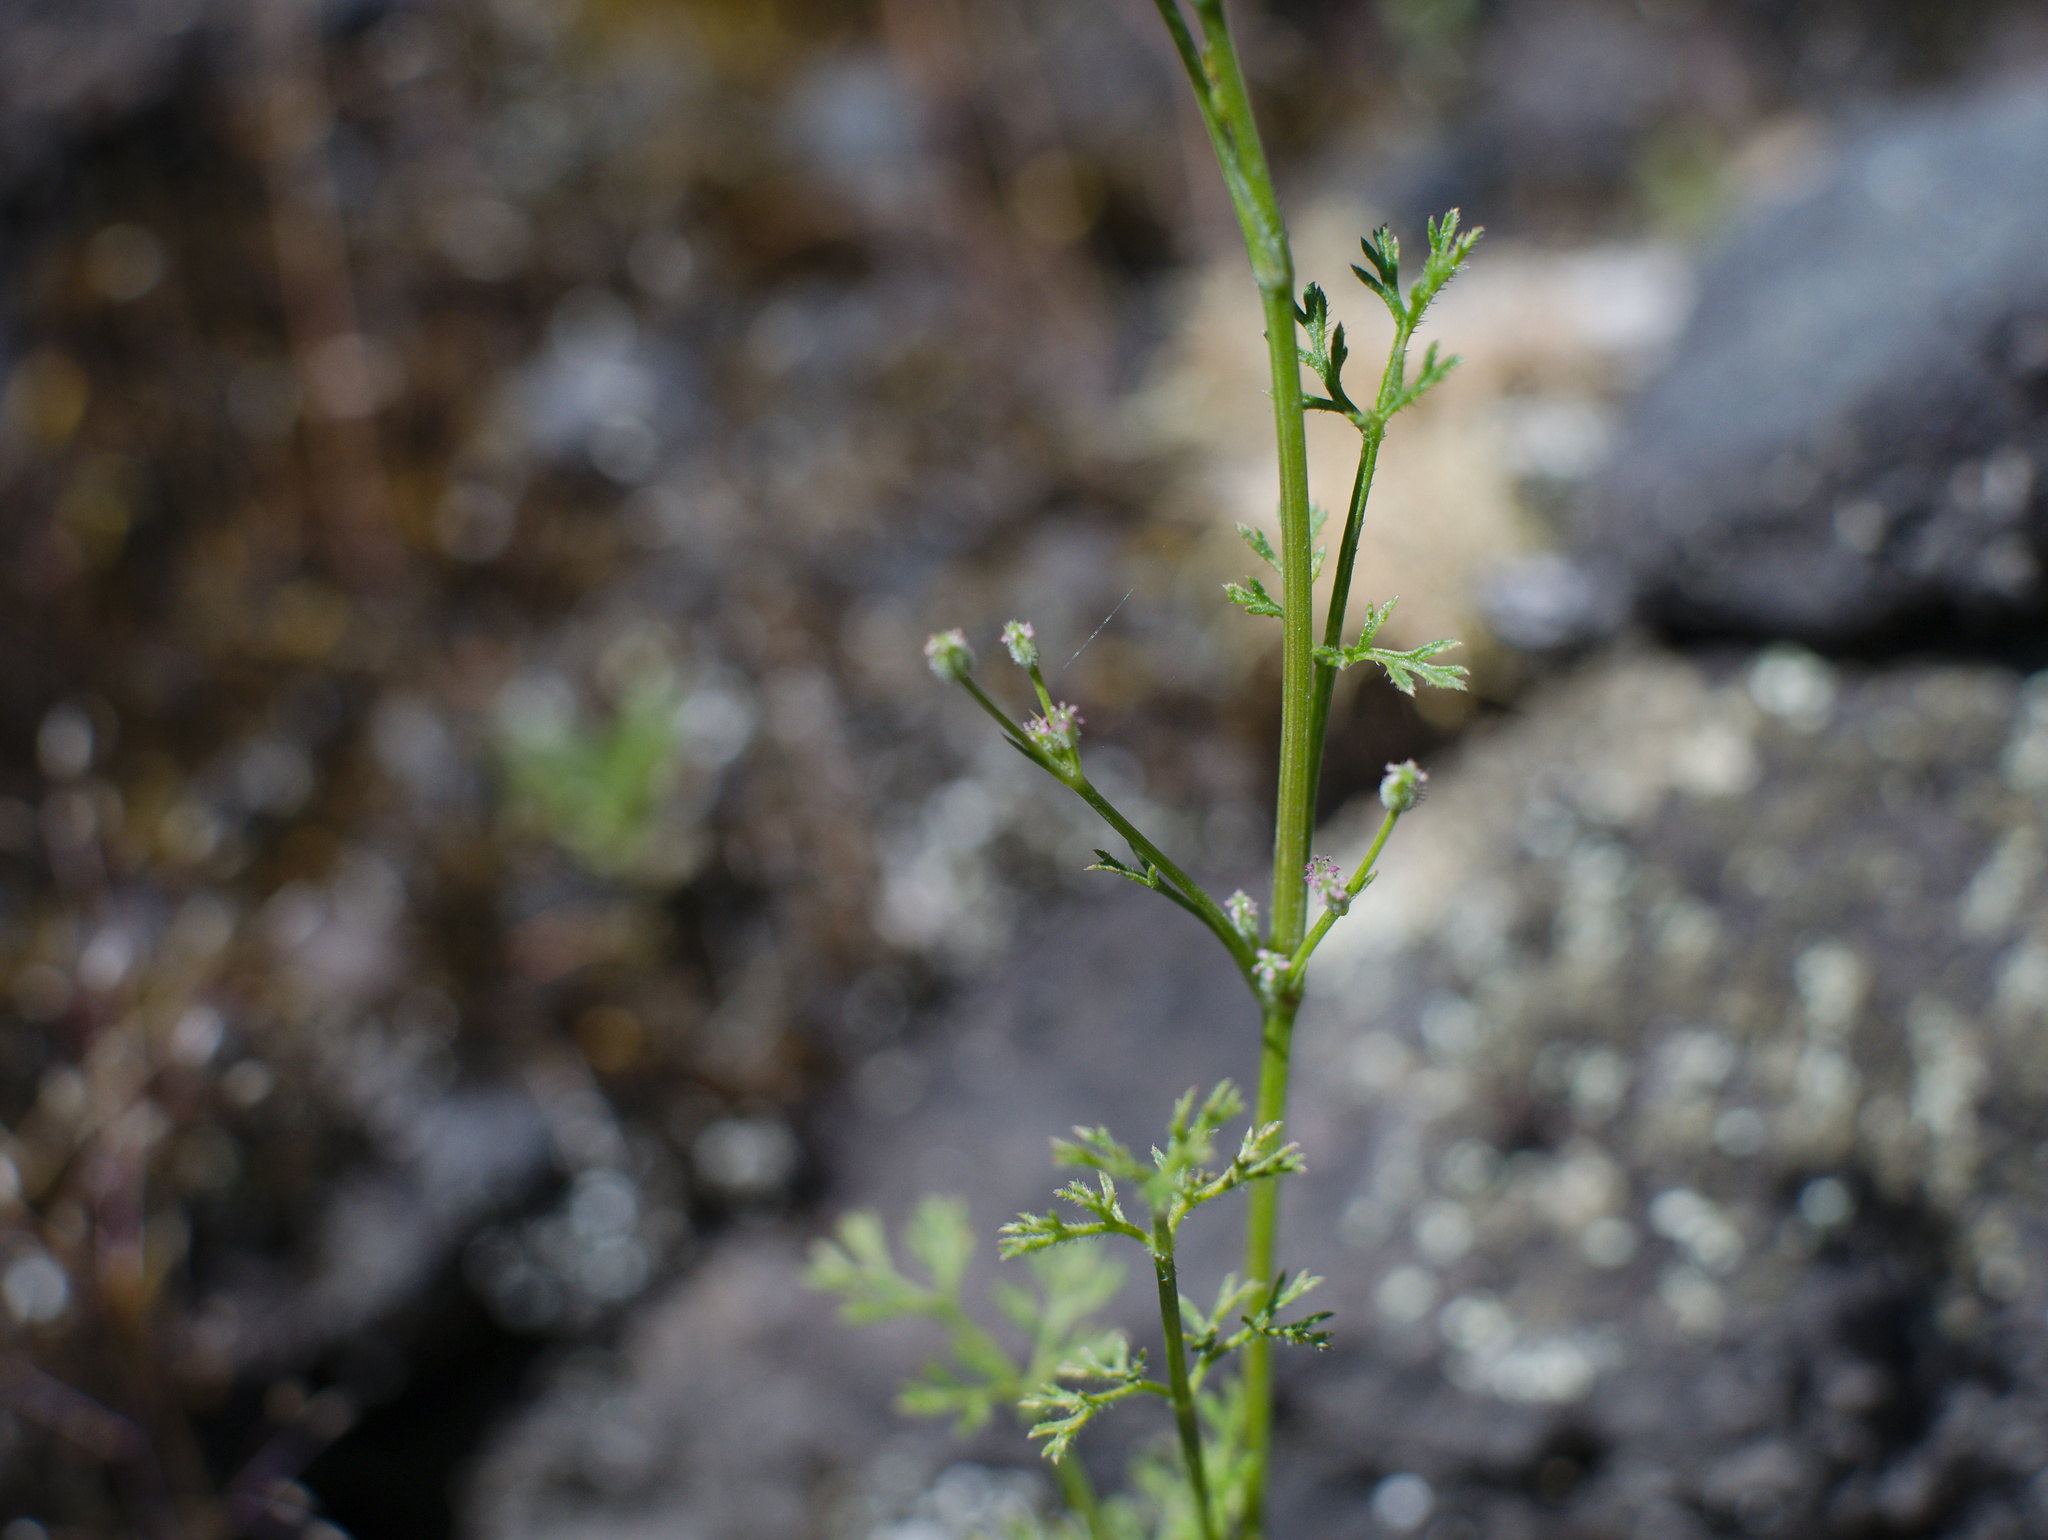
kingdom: Plantae
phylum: Tracheophyta
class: Magnoliopsida
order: Apiales
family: Apiaceae
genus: Daucus
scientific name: Daucus glochidiatus
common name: Australian carrot
